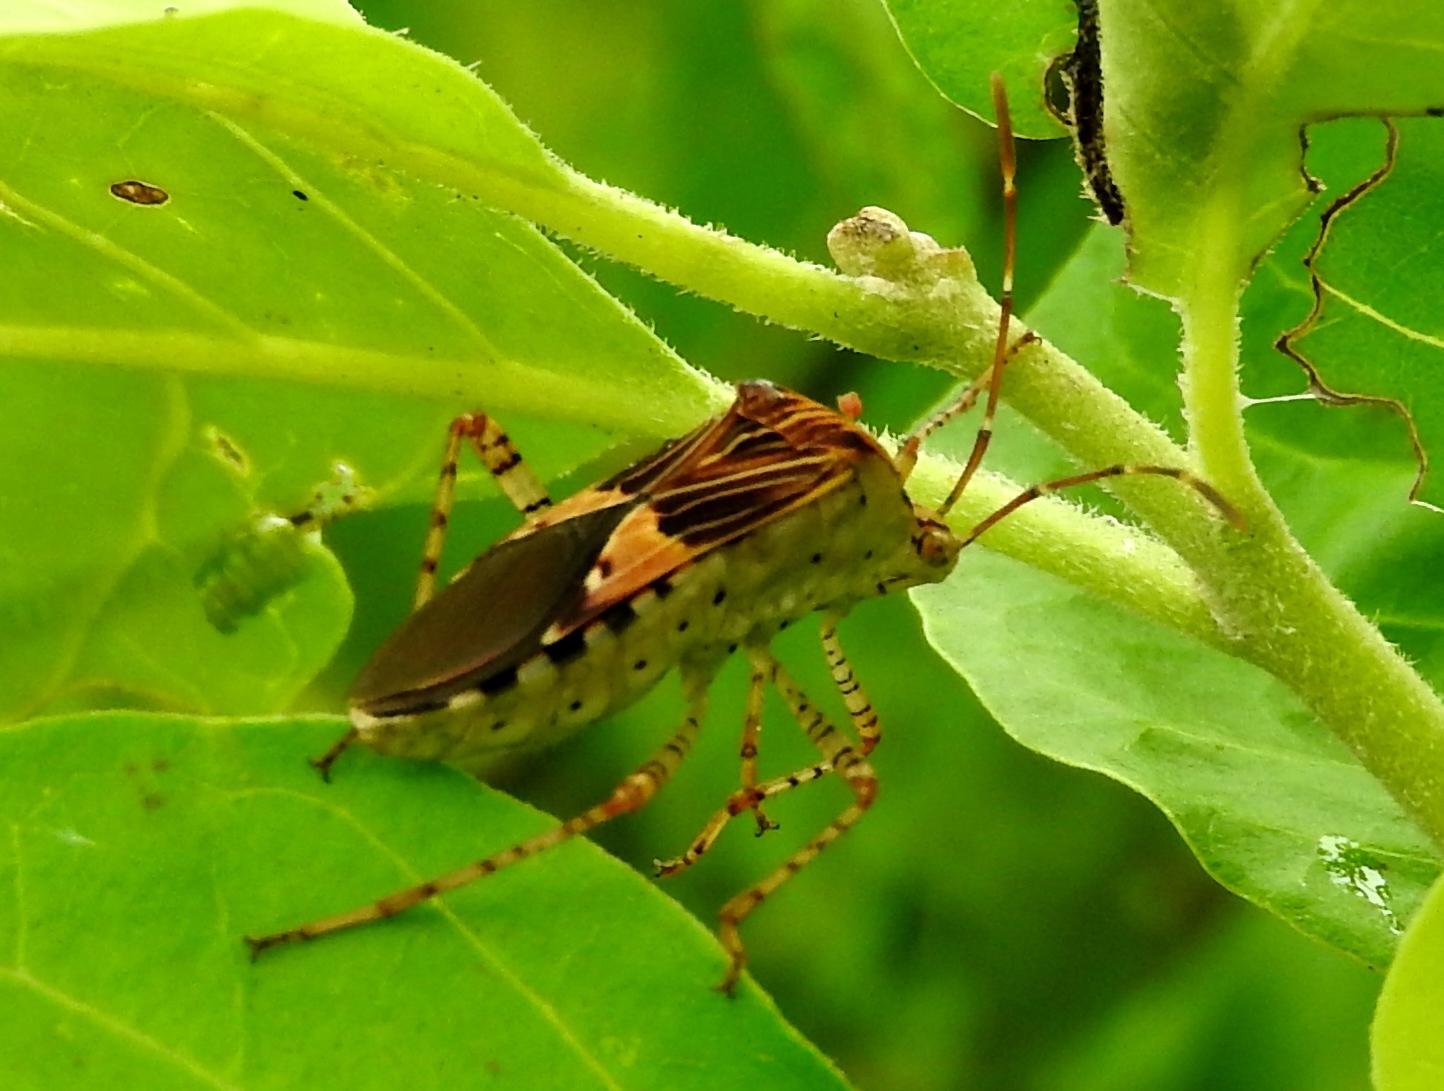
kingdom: Animalia
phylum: Arthropoda
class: Insecta
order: Hemiptera
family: Coreidae
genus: Hypselonotus
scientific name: Hypselonotus punctiventris
